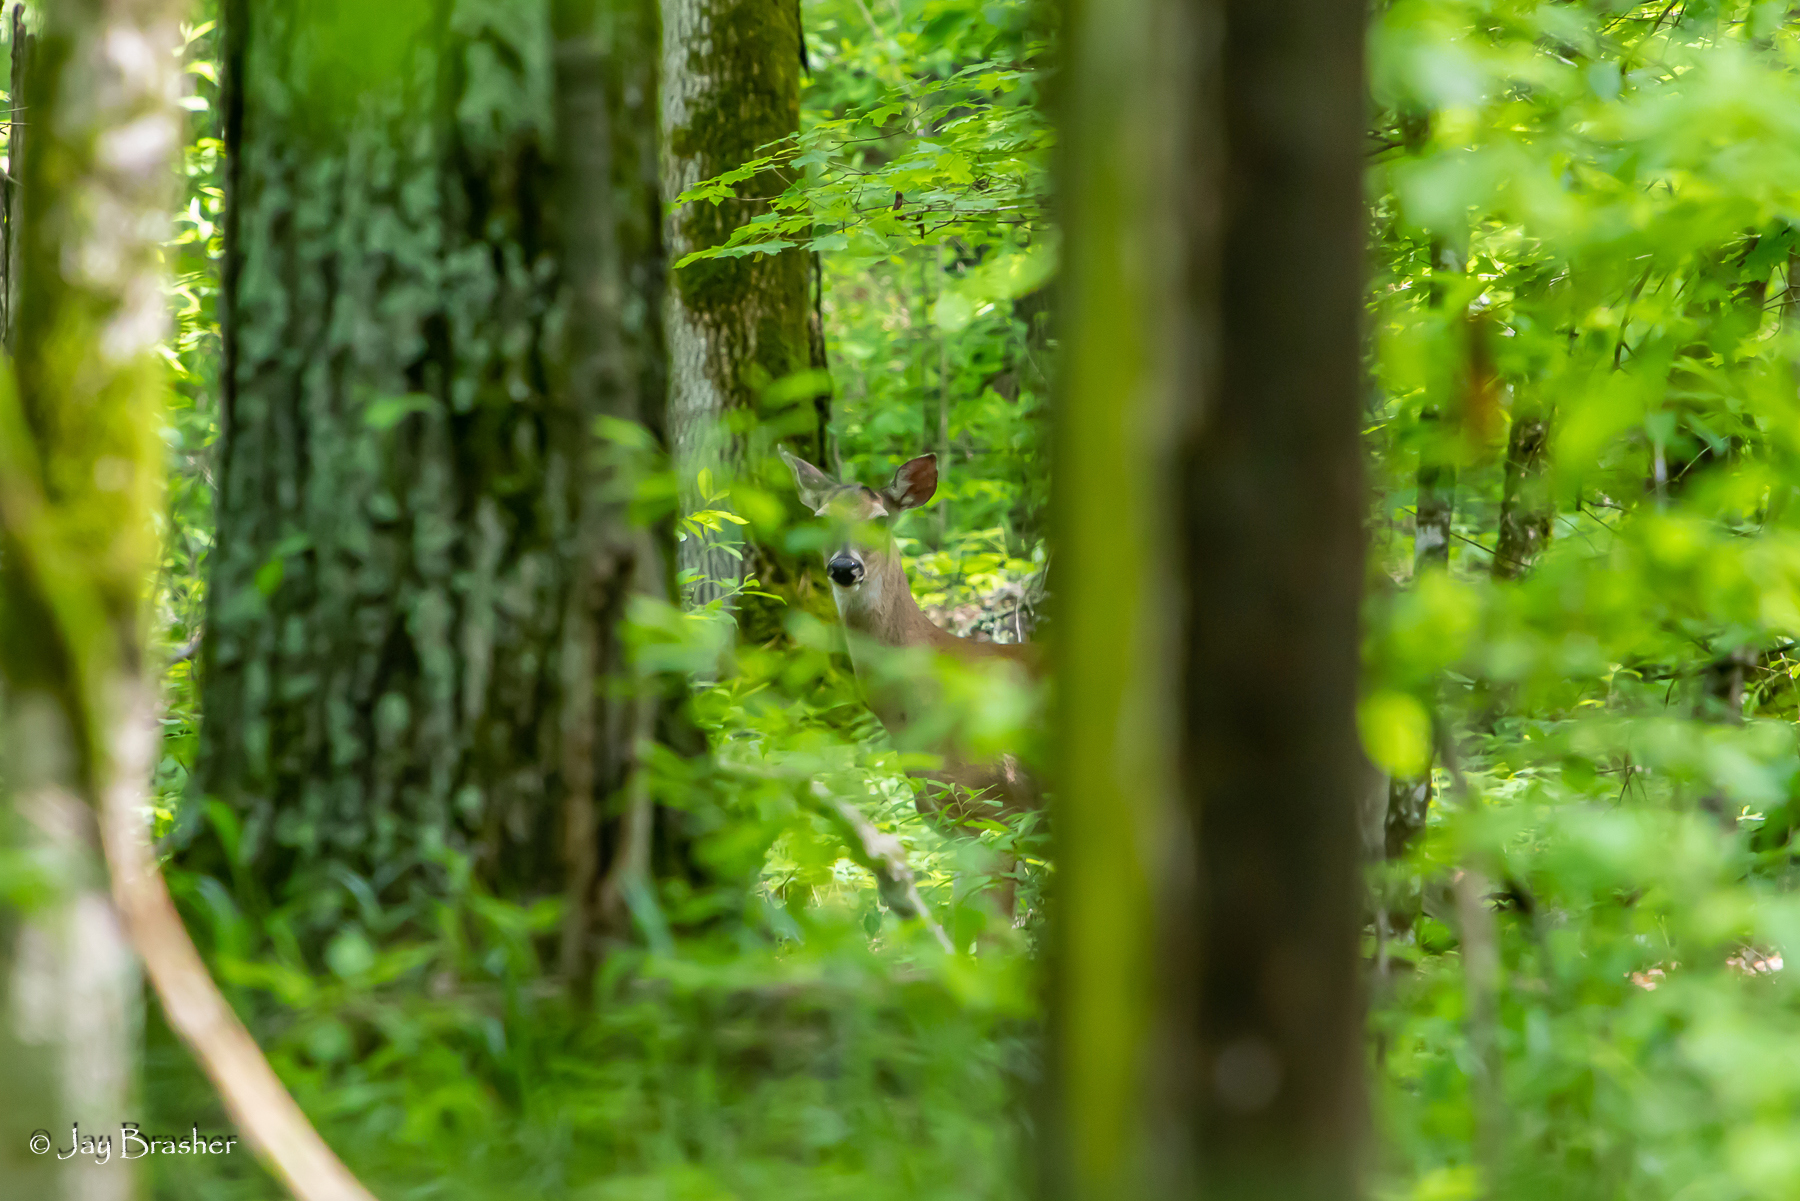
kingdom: Animalia
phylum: Chordata
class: Mammalia
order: Artiodactyla
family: Cervidae
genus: Odocoileus
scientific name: Odocoileus virginianus
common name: White-tailed deer
